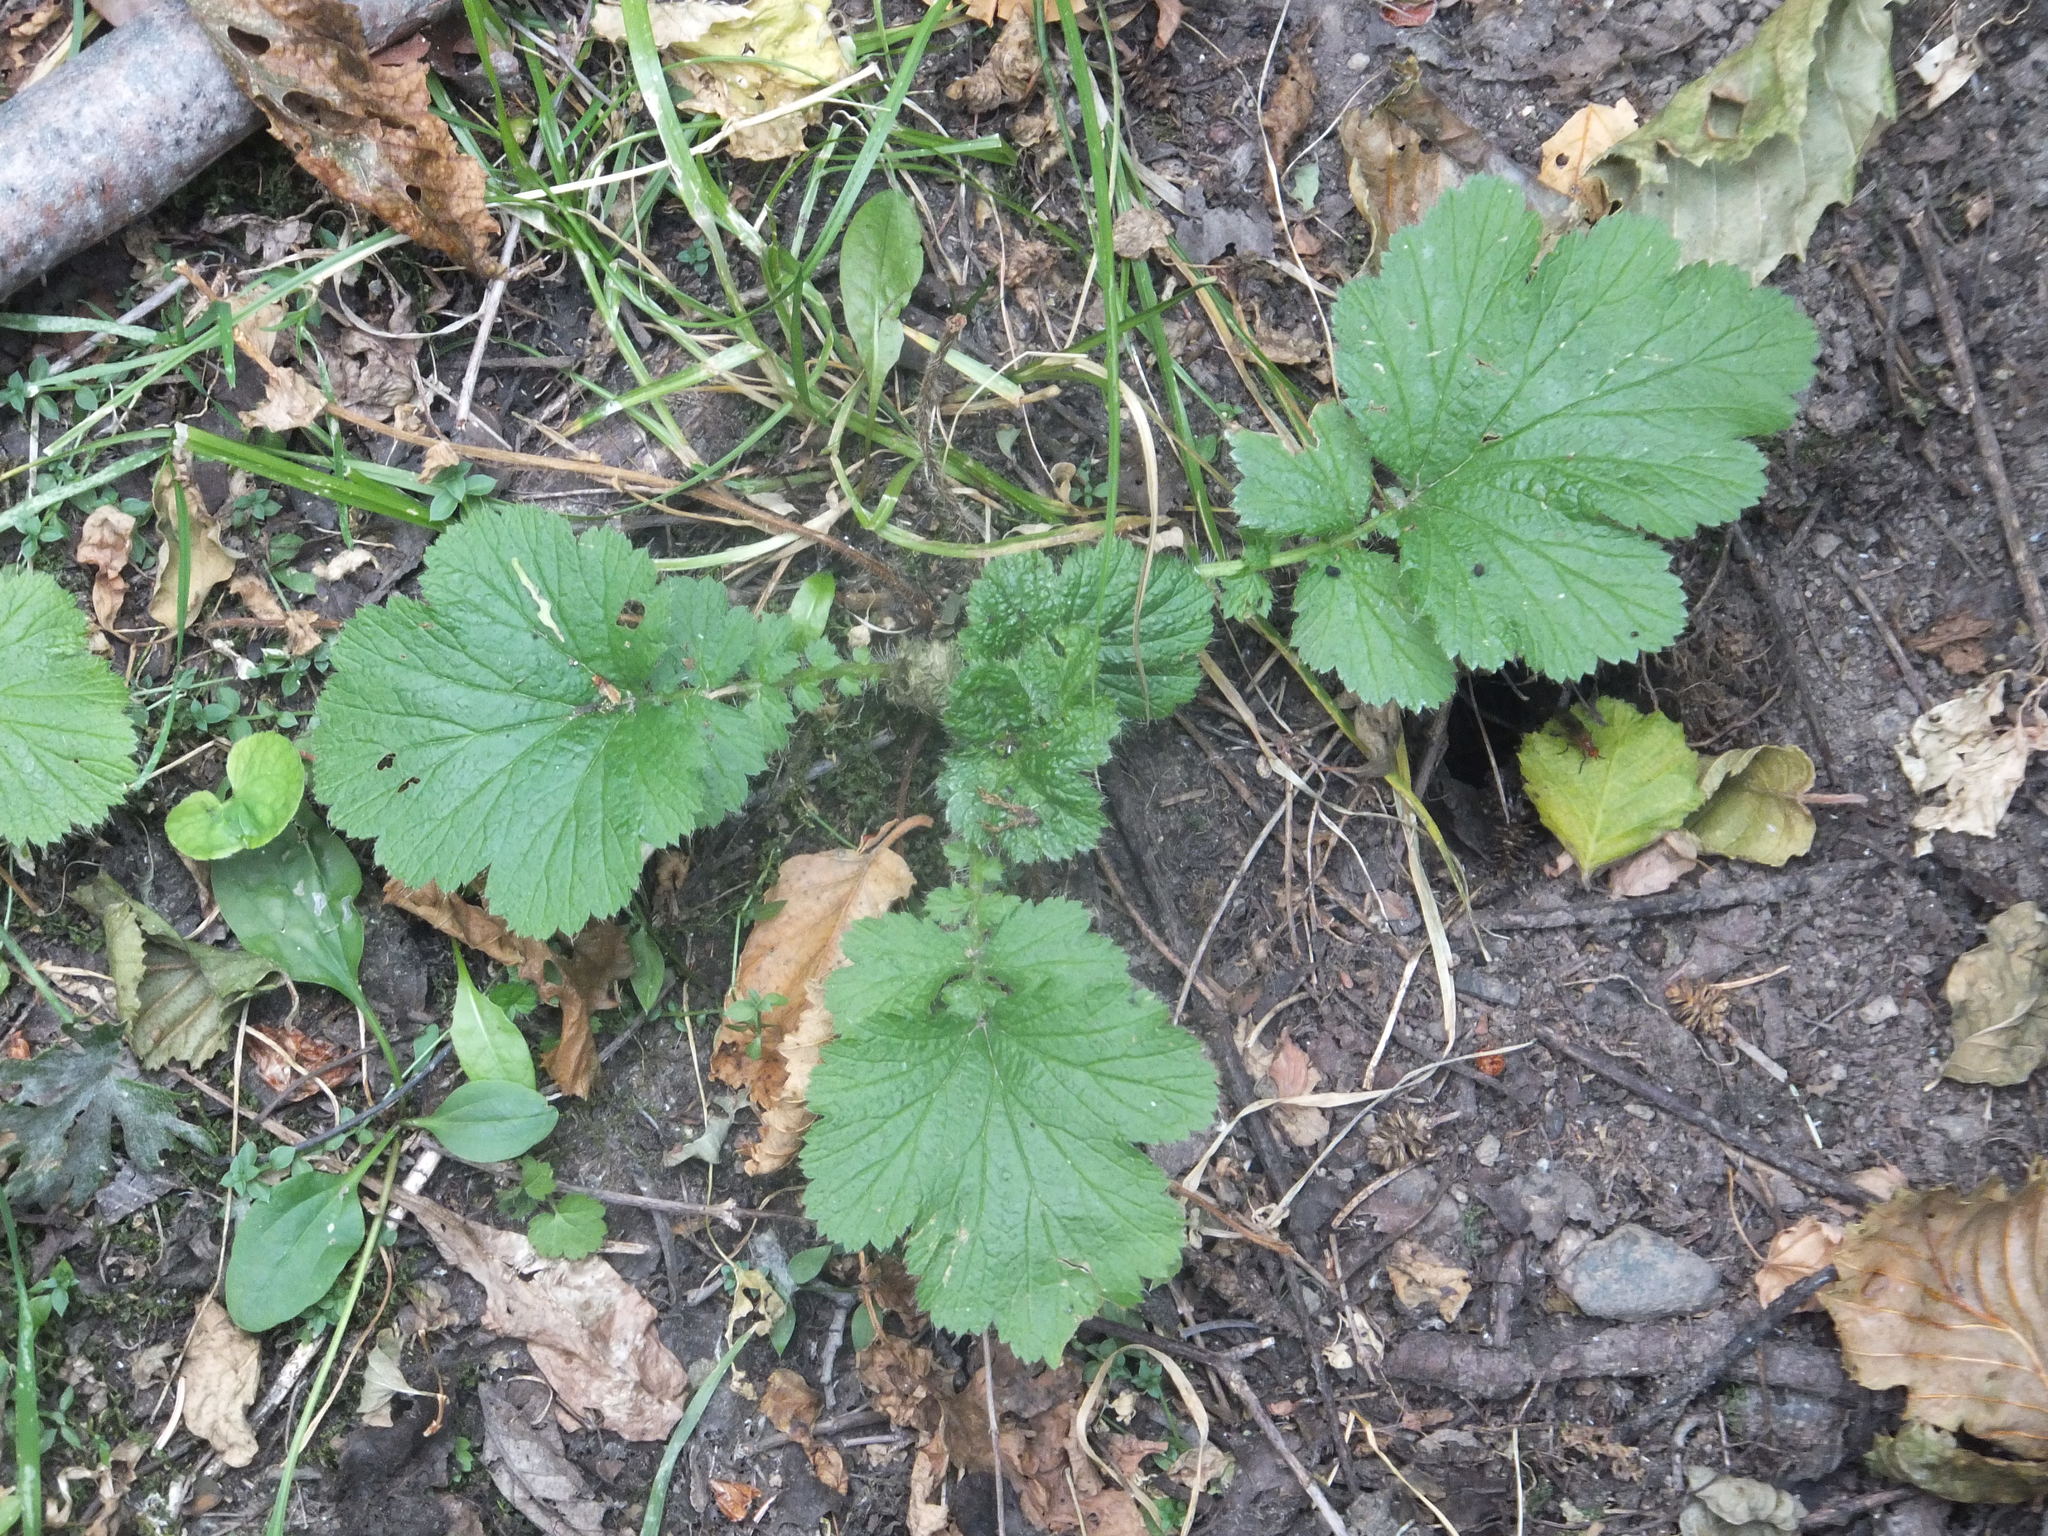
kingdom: Plantae
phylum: Tracheophyta
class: Magnoliopsida
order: Rosales
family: Rosaceae
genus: Geum
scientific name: Geum macrophyllum
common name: Large-leaved avens
